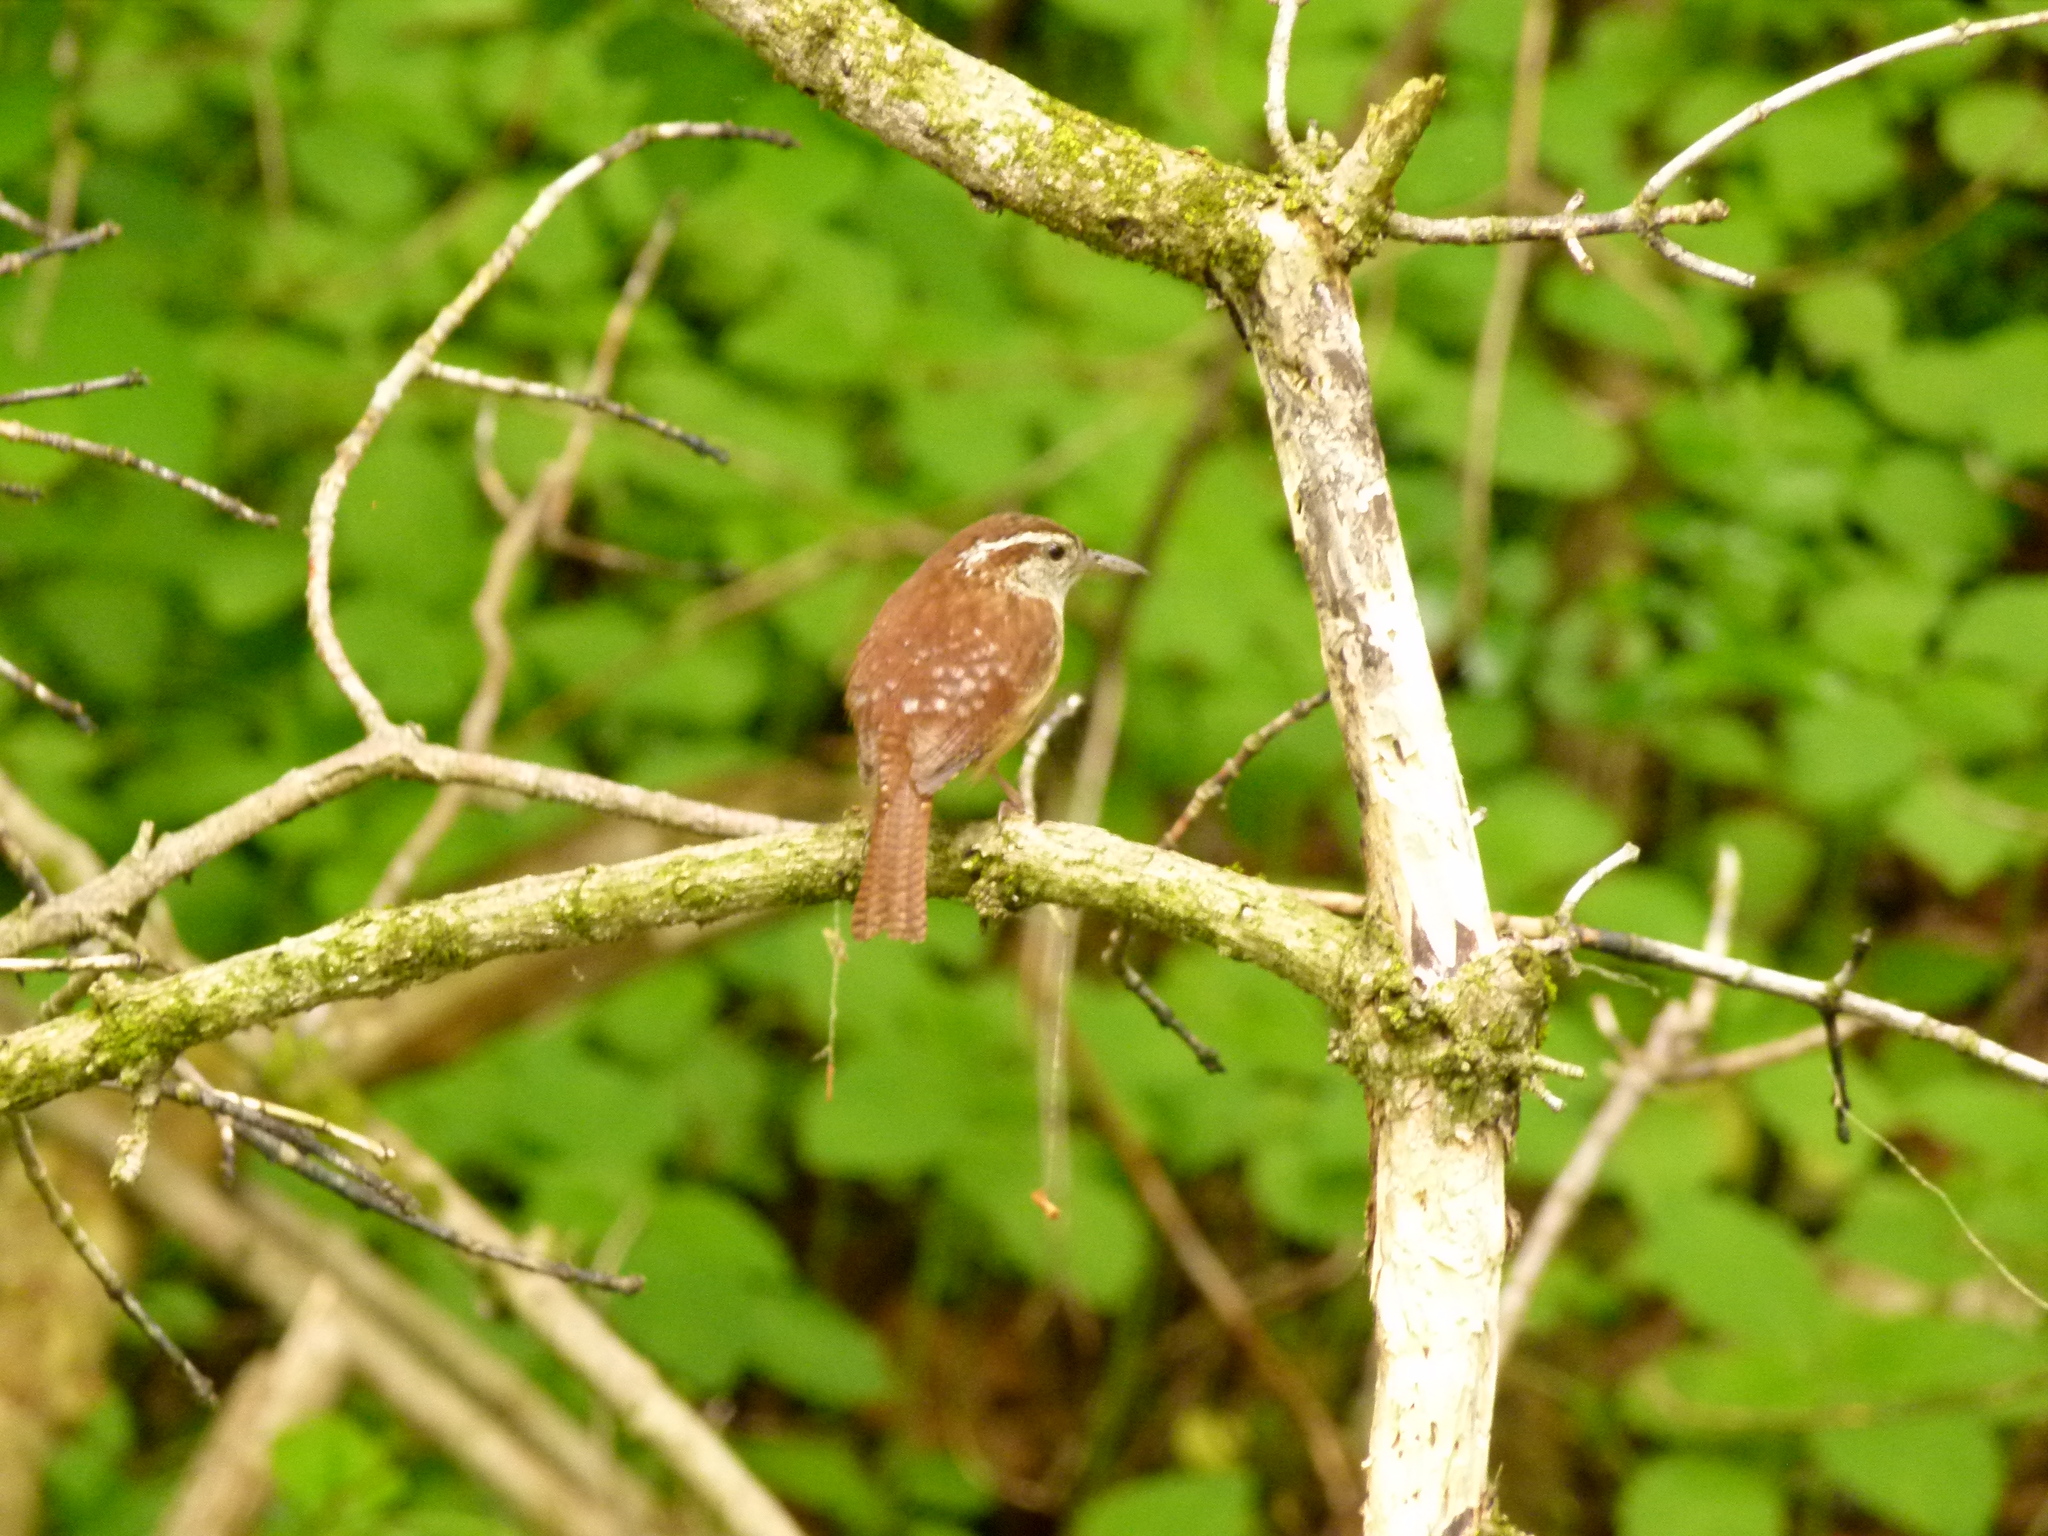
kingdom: Animalia
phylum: Chordata
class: Aves
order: Passeriformes
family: Troglodytidae
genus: Thryothorus
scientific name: Thryothorus ludovicianus
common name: Carolina wren
